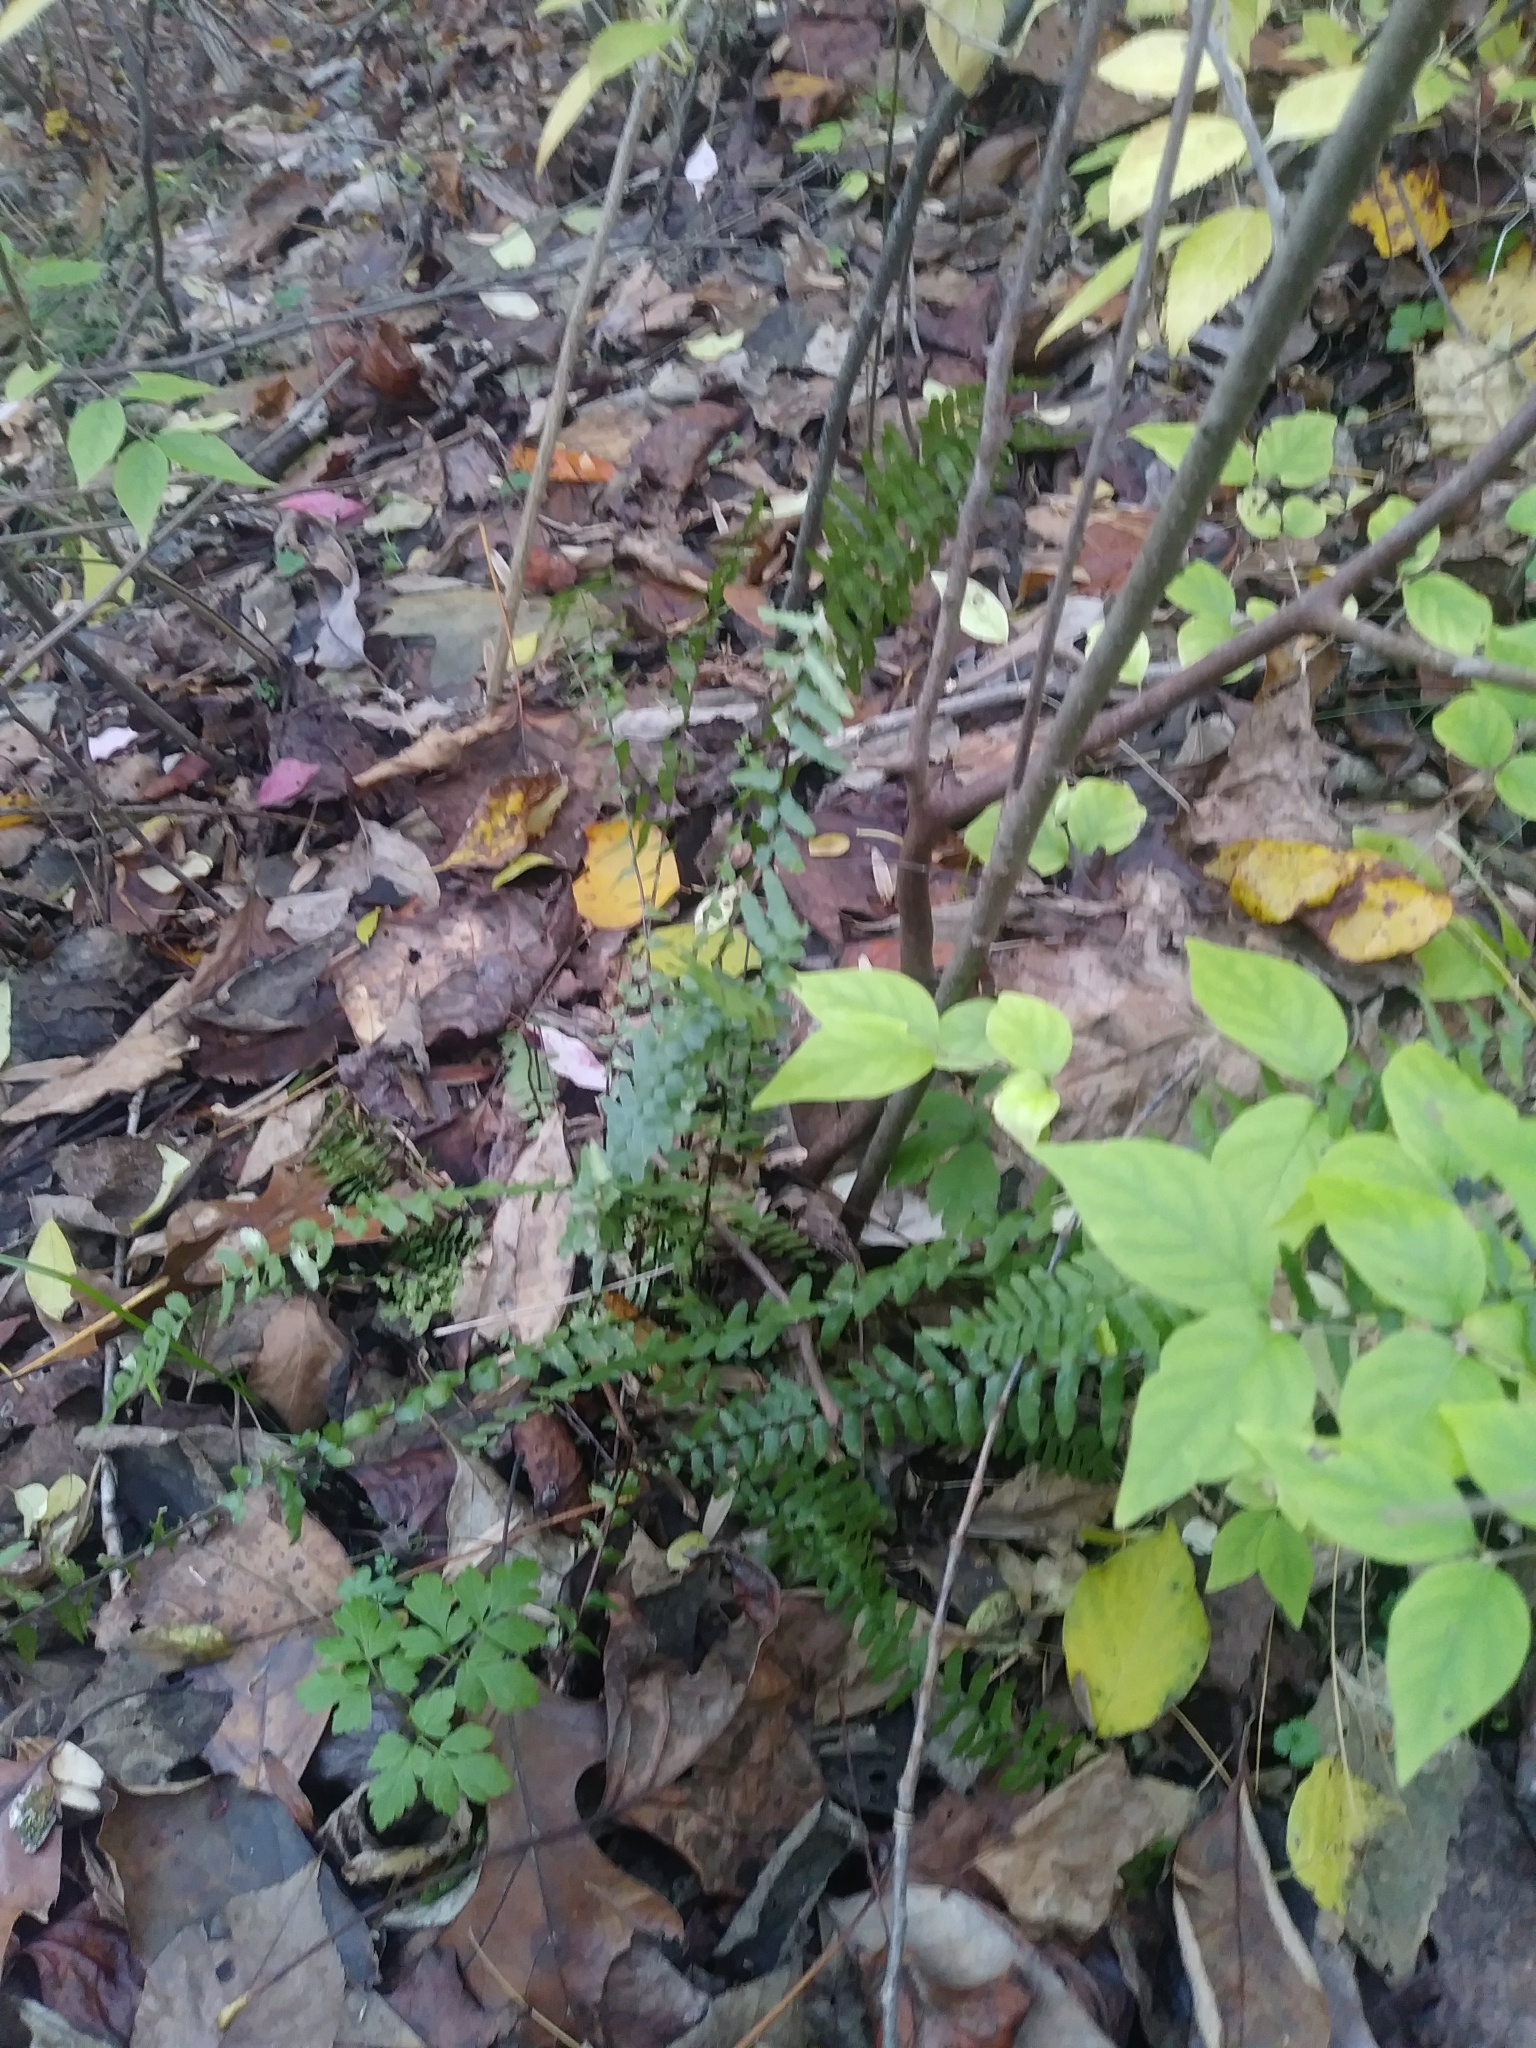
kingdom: Plantae
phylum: Tracheophyta
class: Polypodiopsida
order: Polypodiales
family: Aspleniaceae
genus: Asplenium
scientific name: Asplenium platyneuron
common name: Ebony spleenwort
